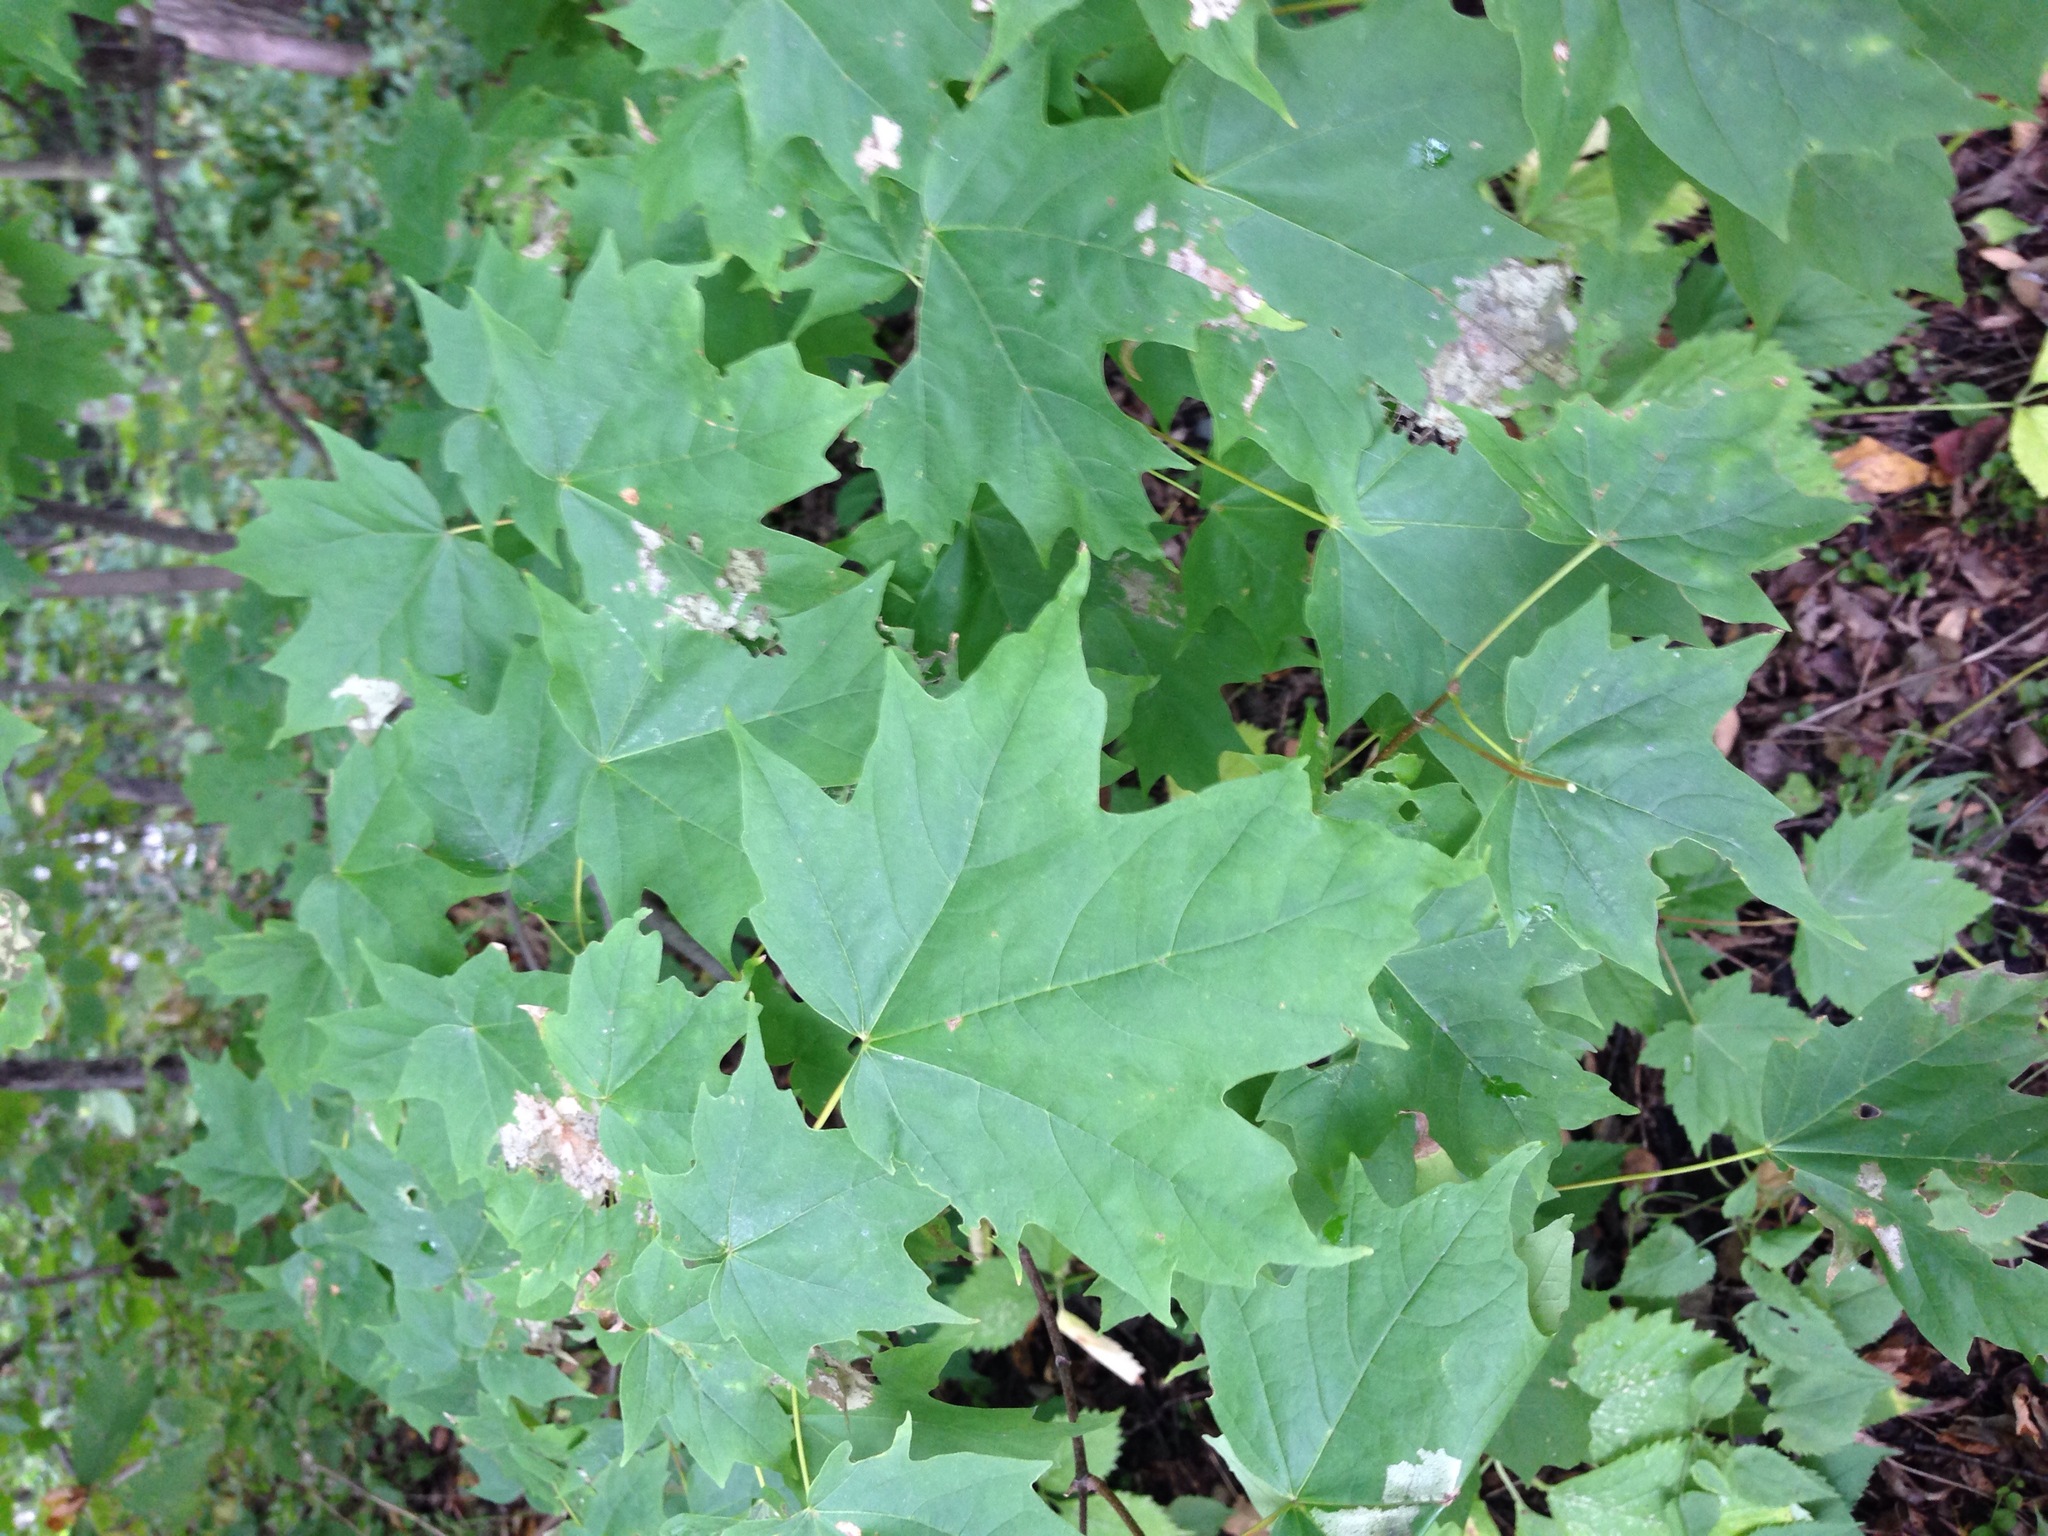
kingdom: Plantae
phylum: Tracheophyta
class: Magnoliopsida
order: Sapindales
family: Sapindaceae
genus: Acer
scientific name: Acer saccharum
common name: Sugar maple
